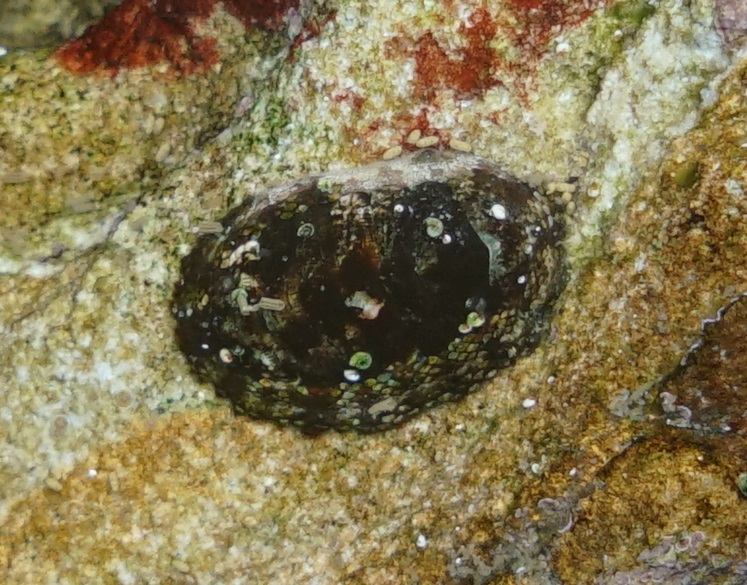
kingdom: Animalia
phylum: Mollusca
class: Polyplacophora
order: Chitonida
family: Chitonidae
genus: Sypharochiton
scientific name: Sypharochiton pelliserpentis
